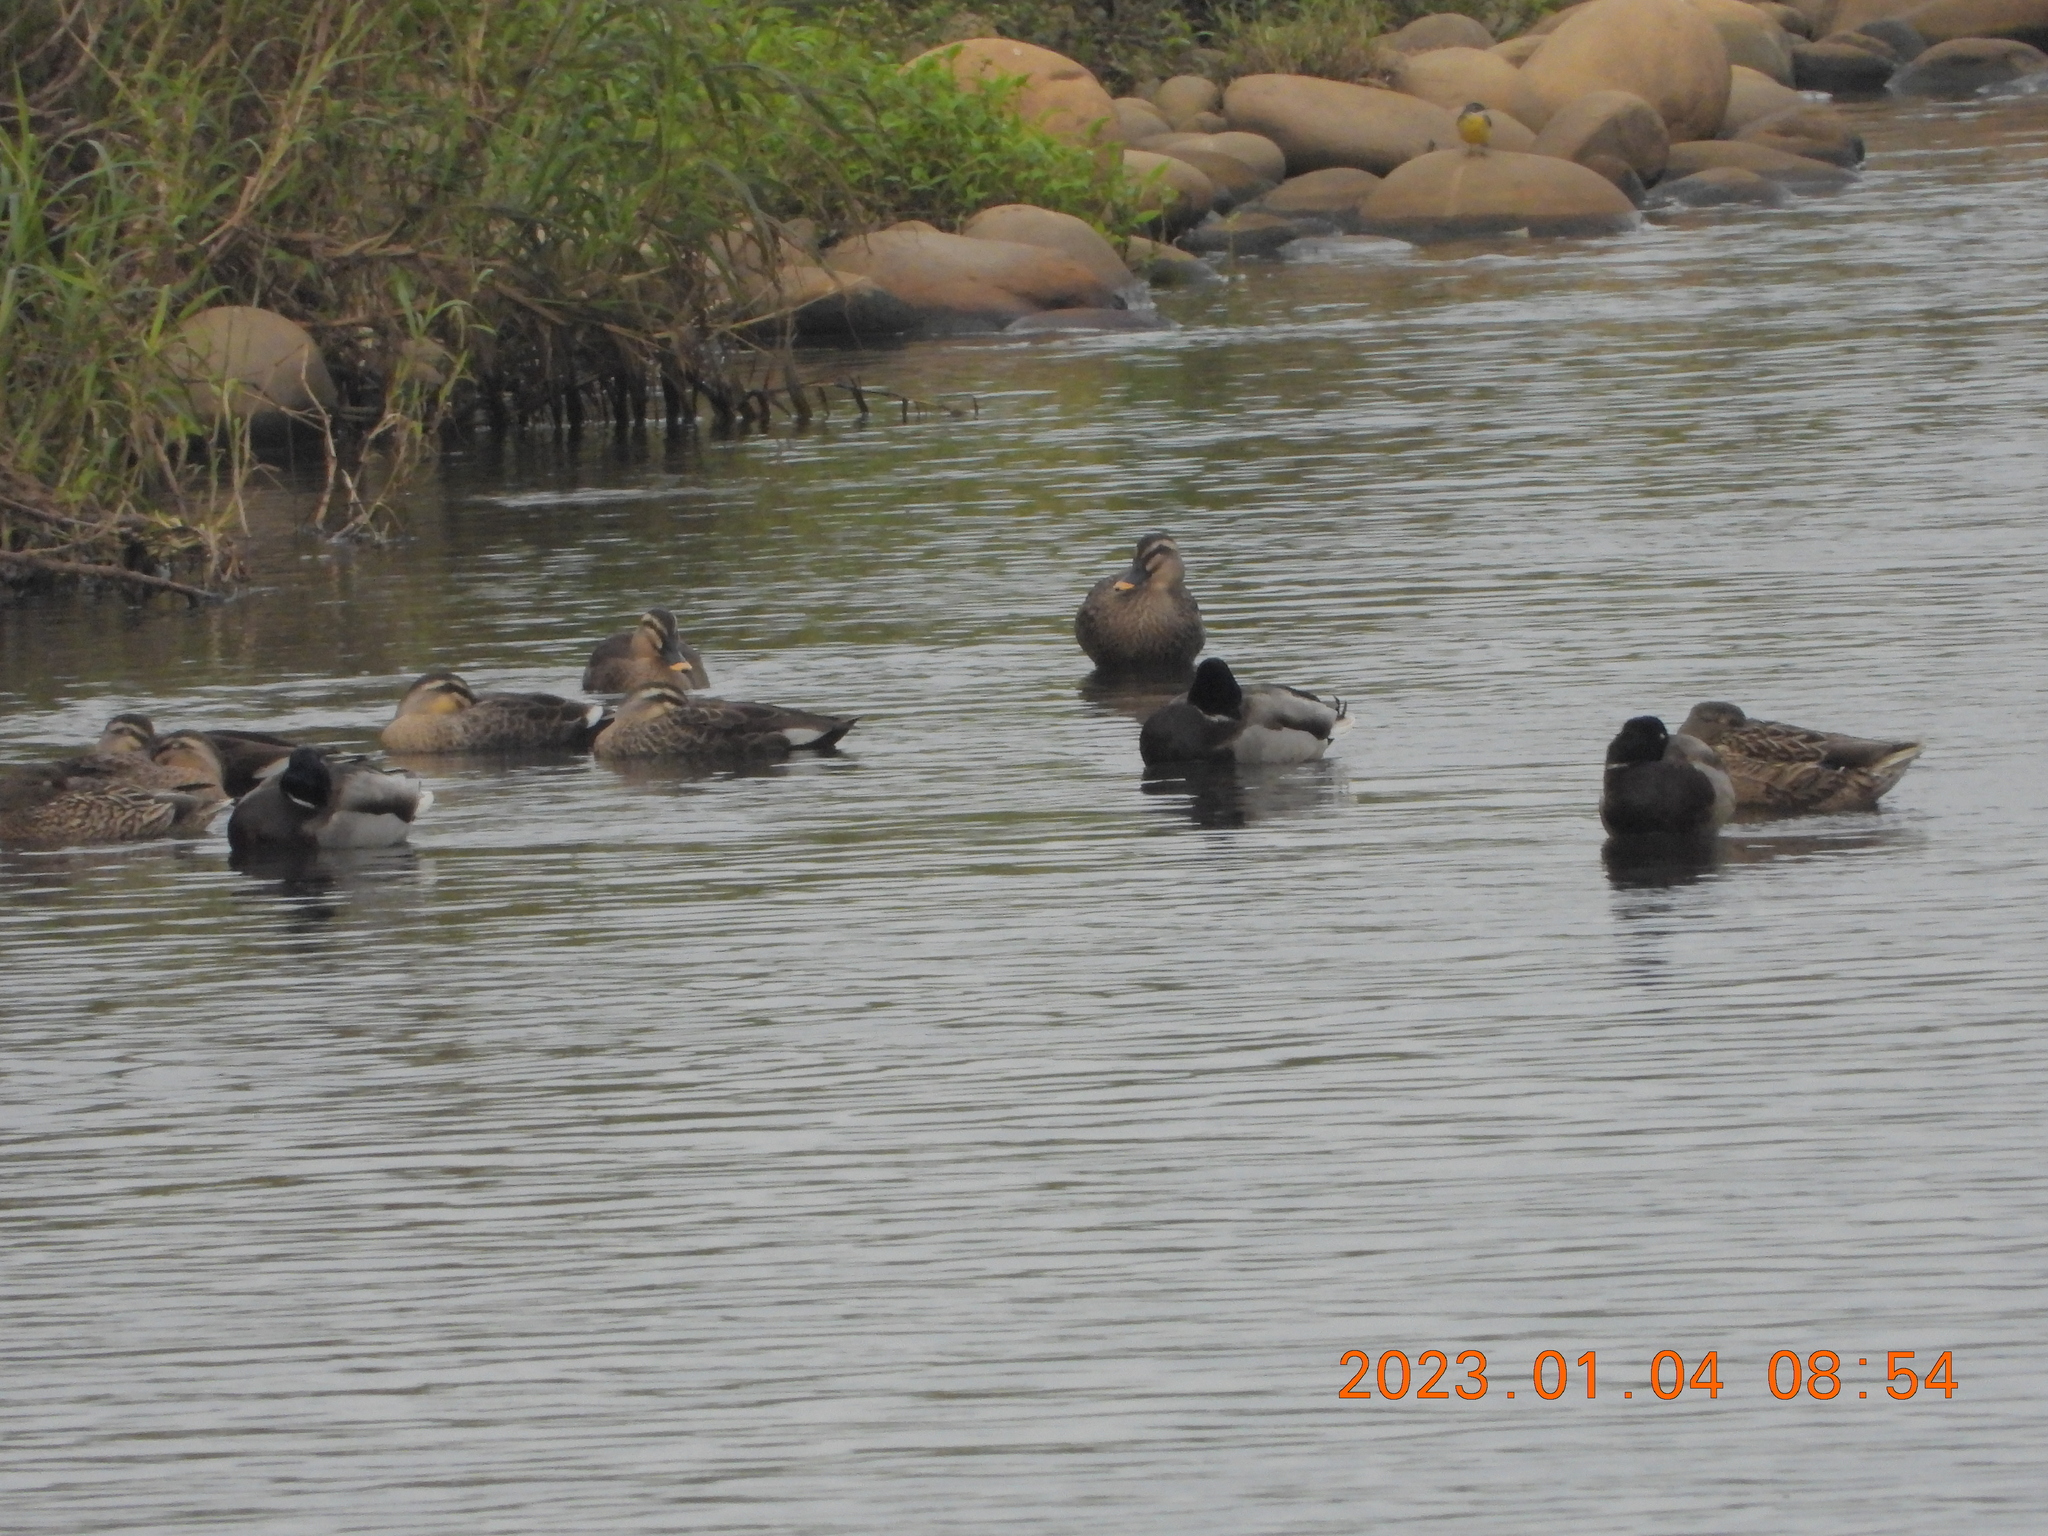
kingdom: Animalia
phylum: Chordata
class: Aves
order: Anseriformes
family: Anatidae
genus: Anas
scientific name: Anas zonorhyncha
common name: Eastern spot-billed duck
